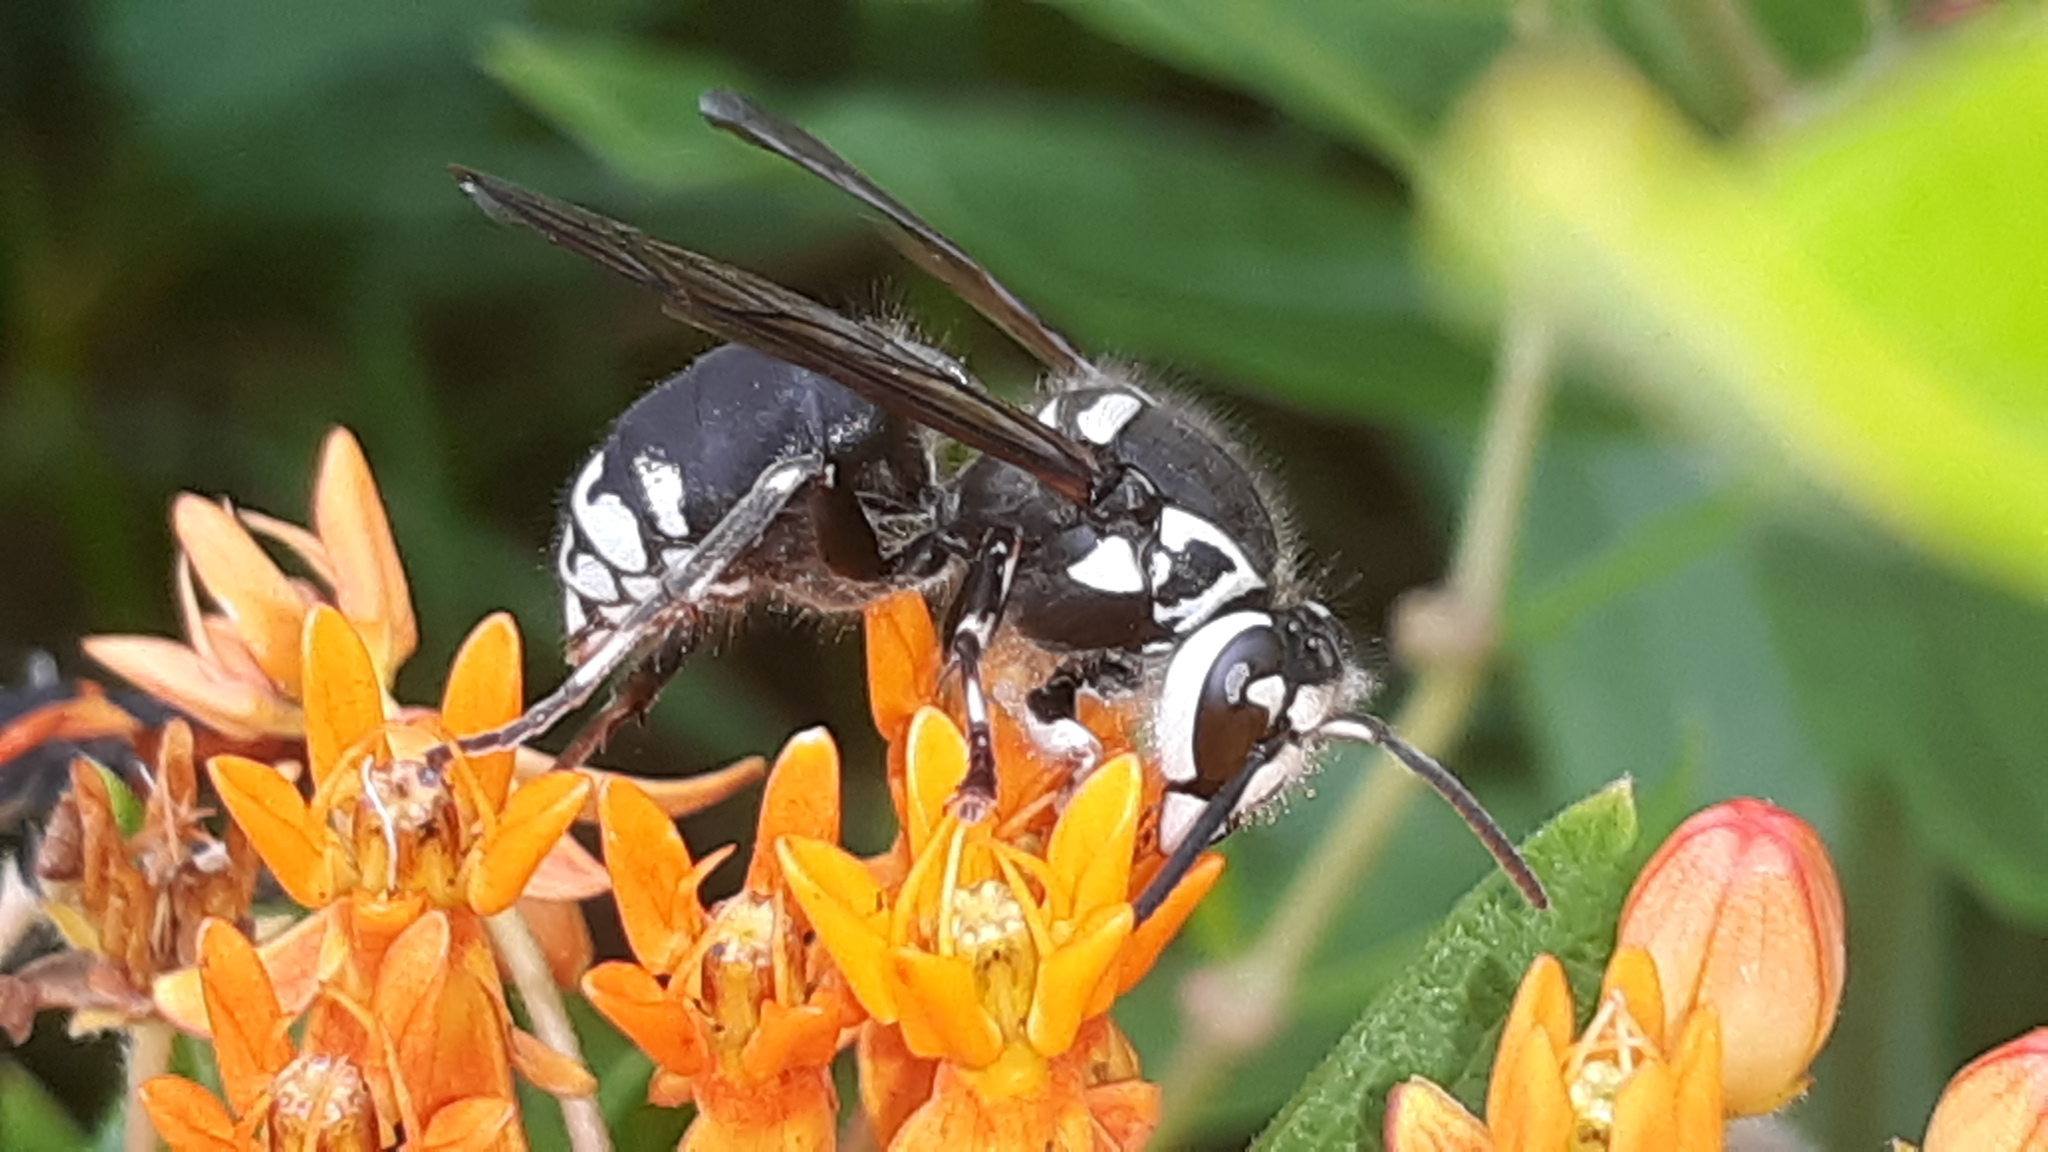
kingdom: Animalia
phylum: Arthropoda
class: Insecta
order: Hymenoptera
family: Vespidae
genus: Dolichovespula
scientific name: Dolichovespula maculata
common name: Bald-faced hornet
